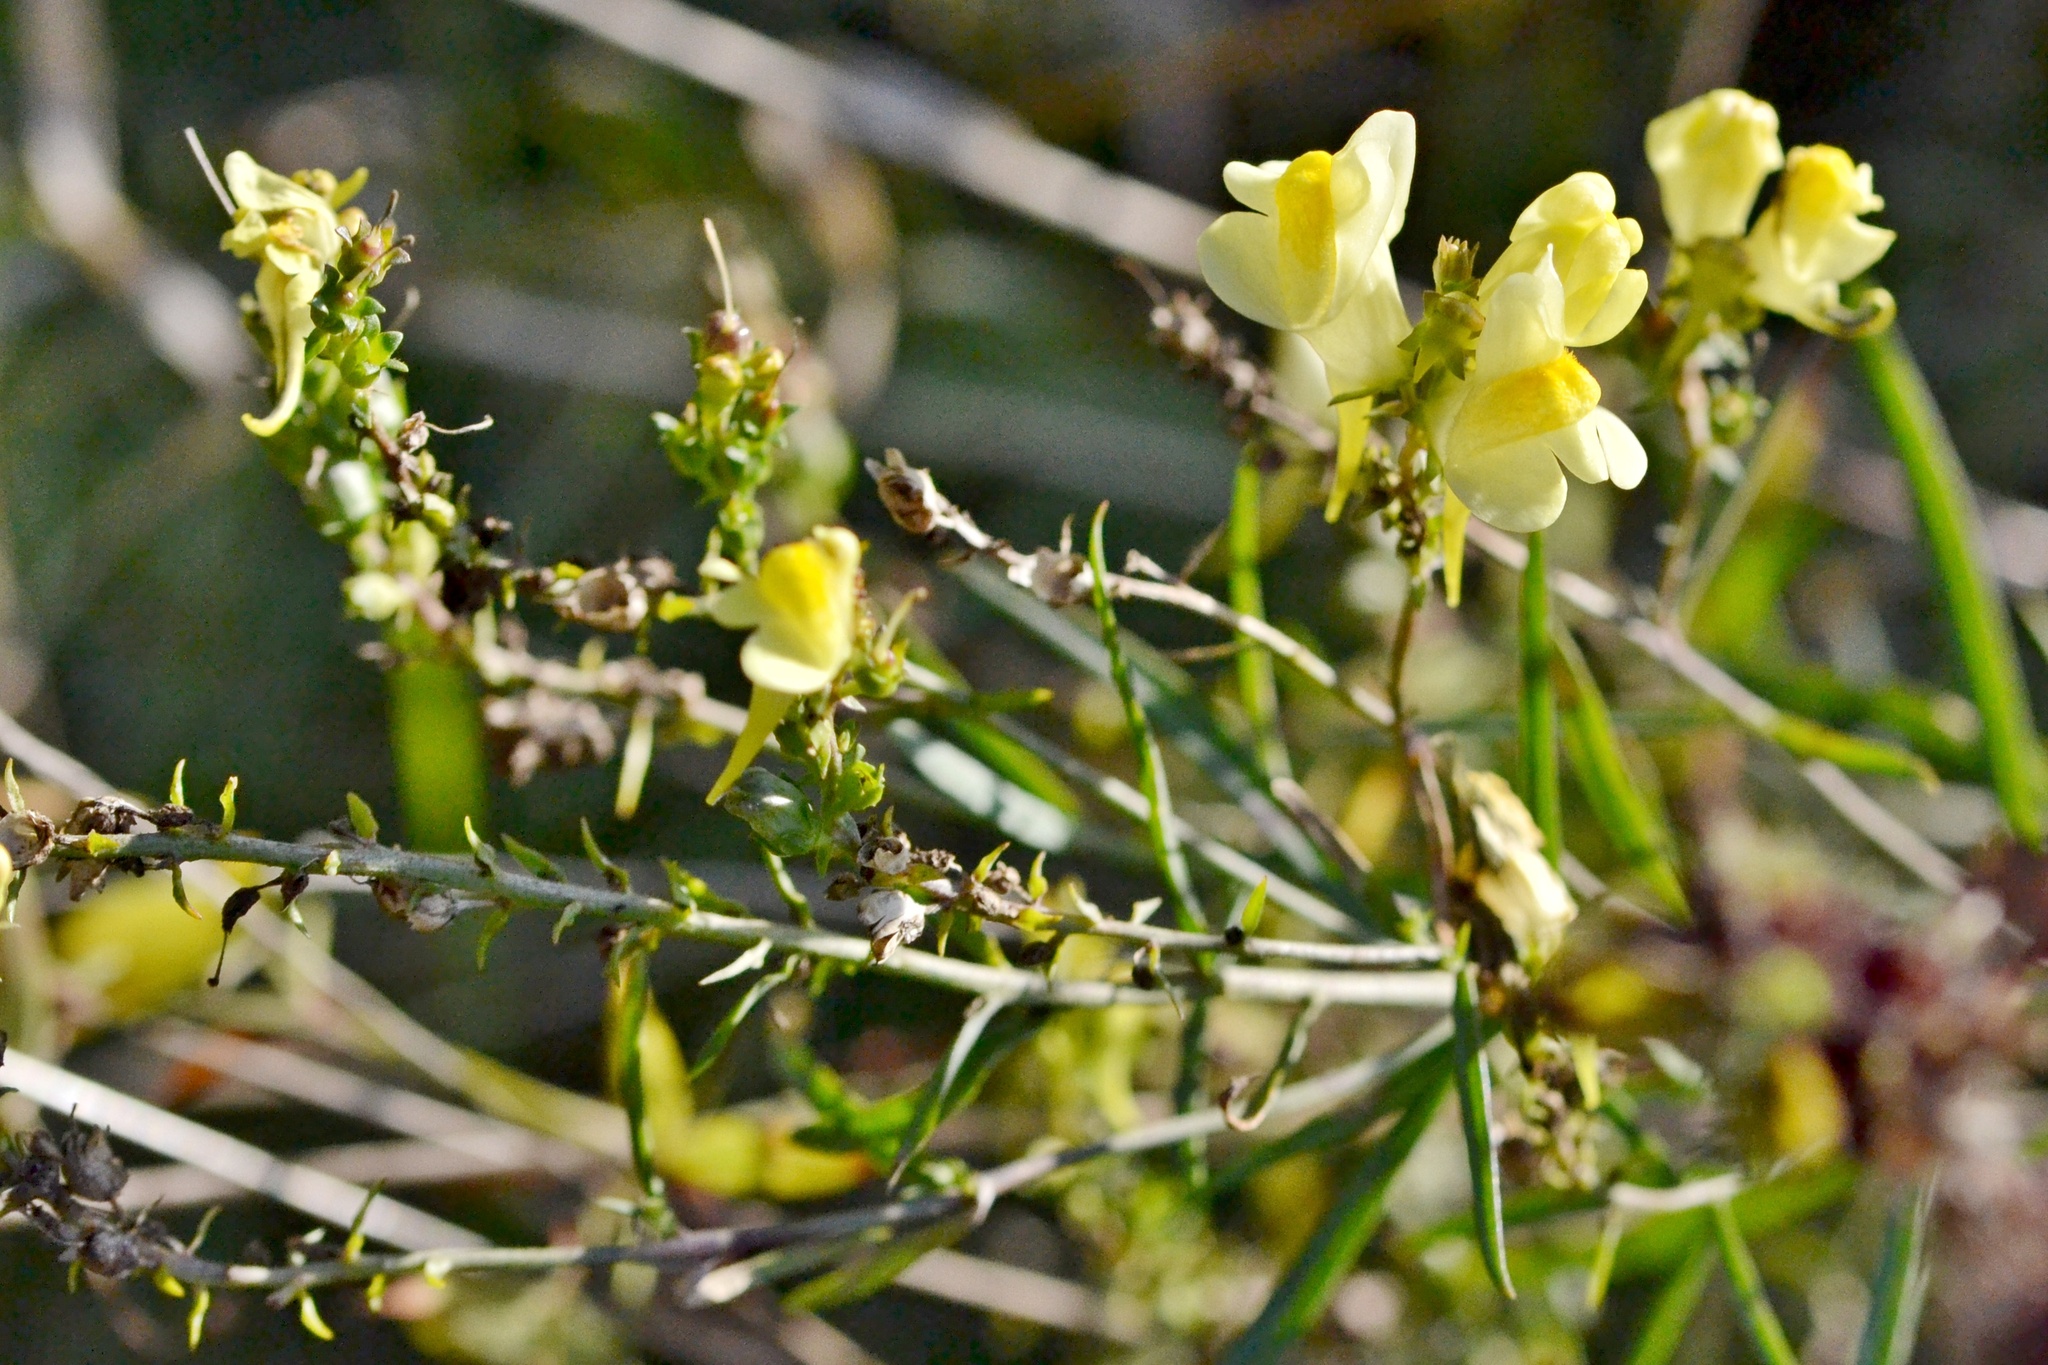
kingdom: Plantae
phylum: Tracheophyta
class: Magnoliopsida
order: Lamiales
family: Plantaginaceae
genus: Linaria
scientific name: Linaria vulgaris
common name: Butter and eggs
